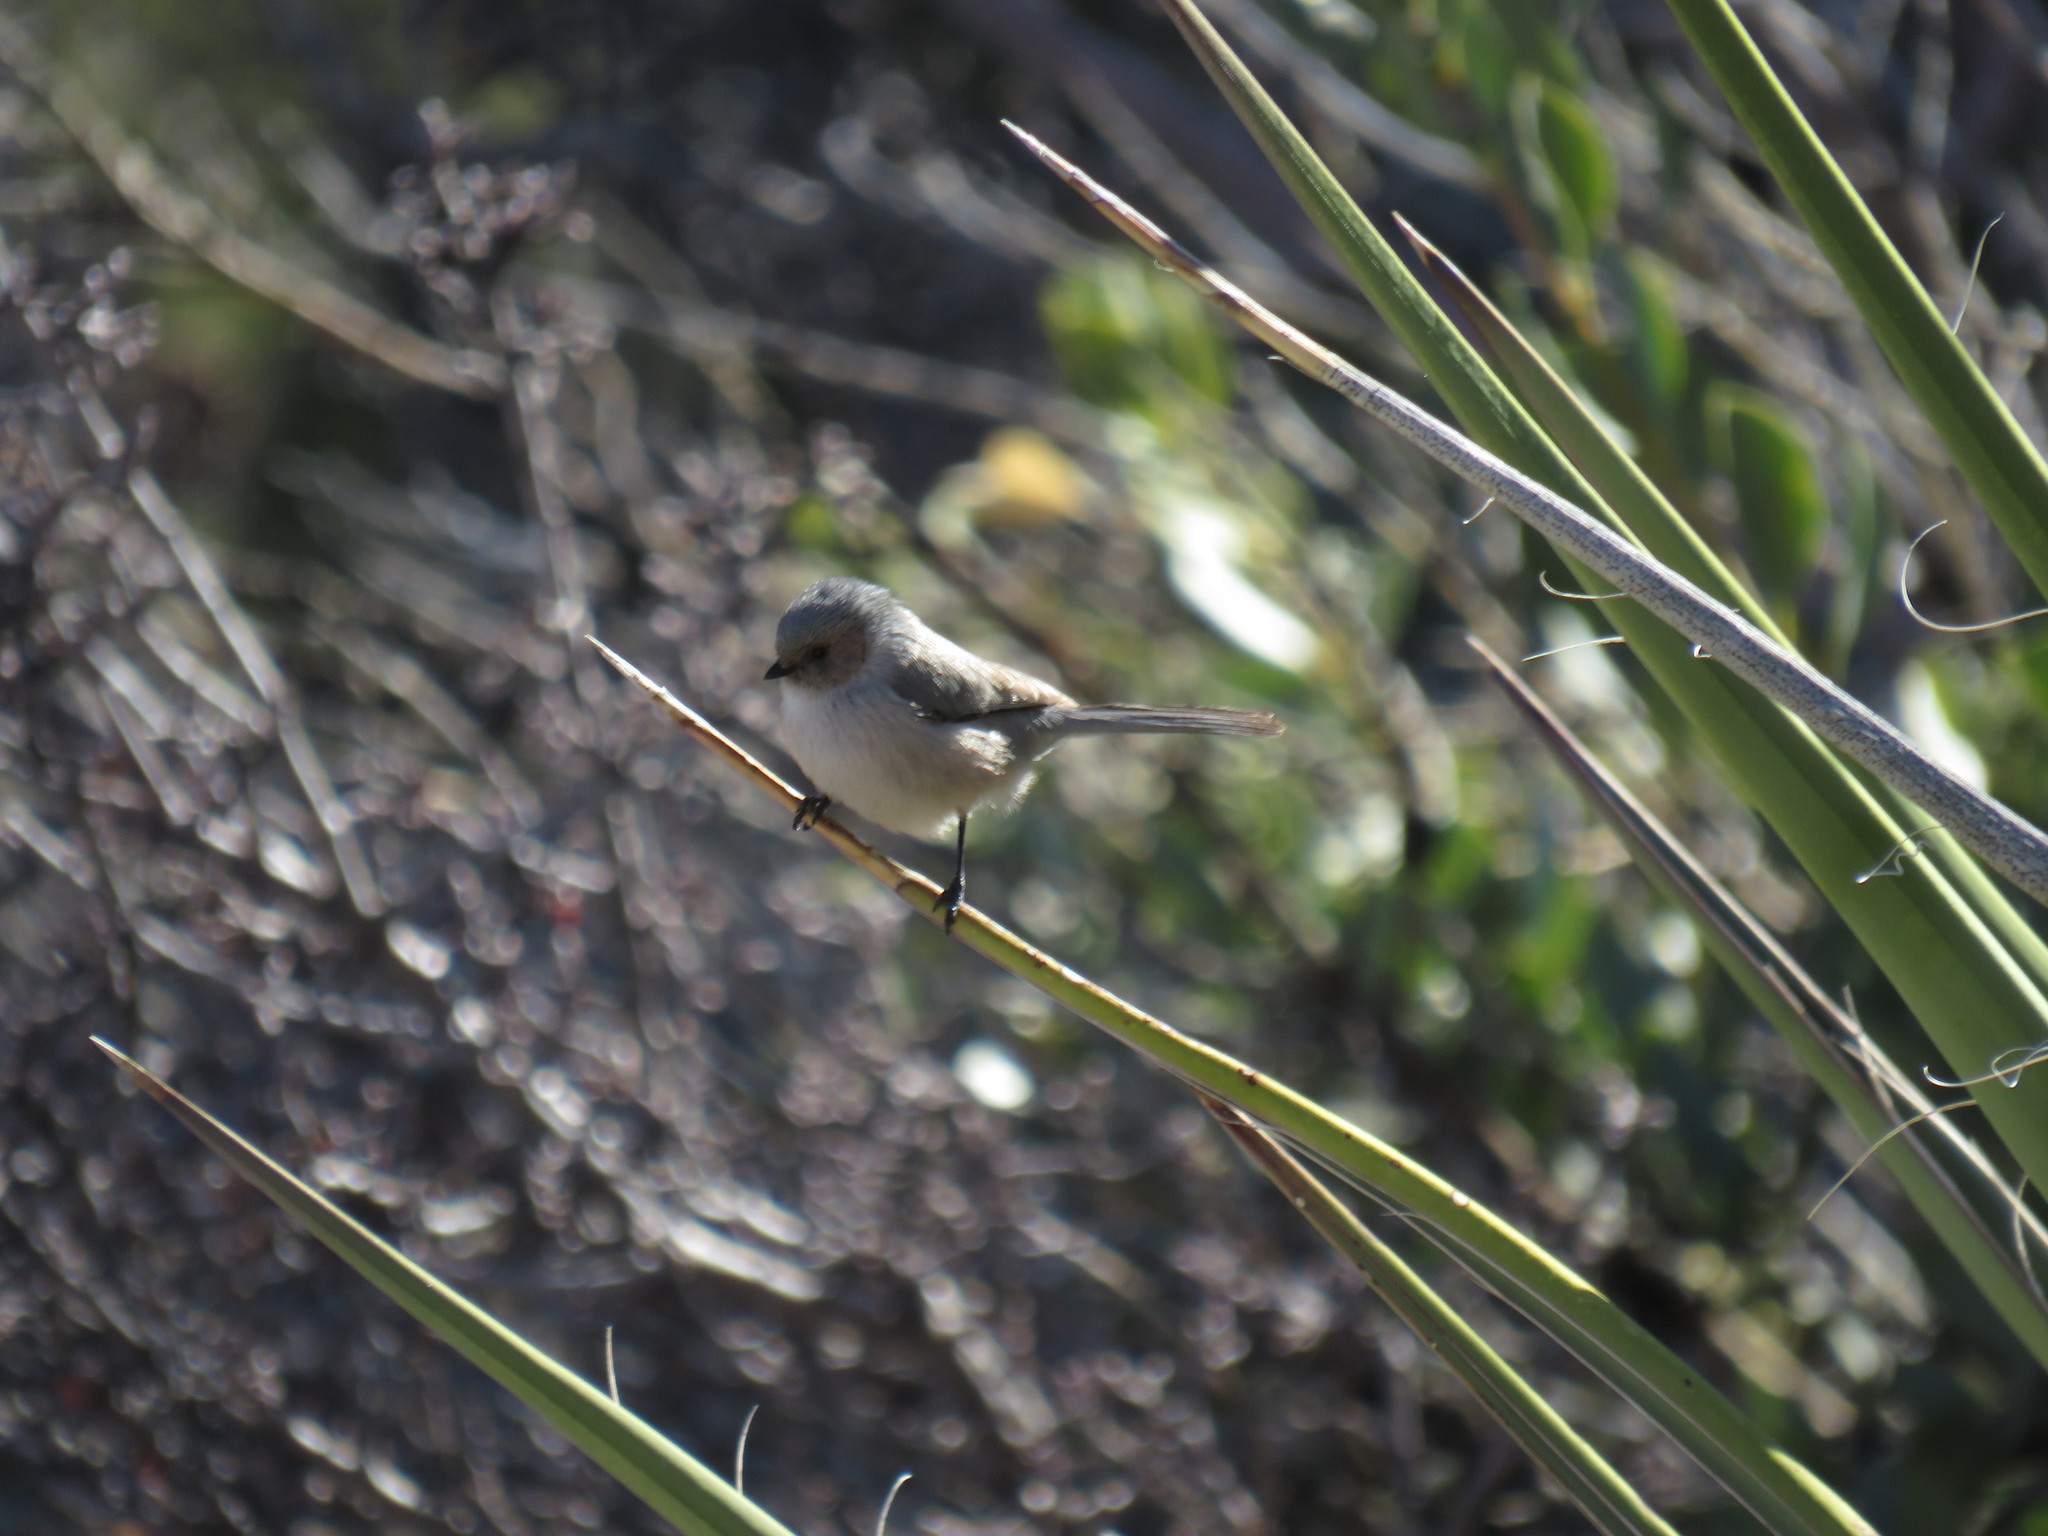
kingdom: Animalia
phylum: Chordata
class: Aves
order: Passeriformes
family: Aegithalidae
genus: Psaltriparus
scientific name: Psaltriparus minimus
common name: American bushtit
